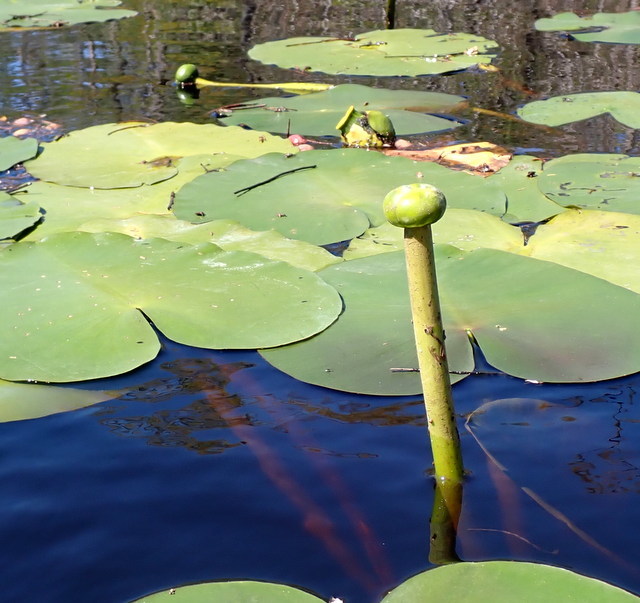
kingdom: Plantae
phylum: Tracheophyta
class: Magnoliopsida
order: Nymphaeales
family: Nymphaeaceae
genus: Nuphar
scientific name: Nuphar advena
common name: Spatter-dock
